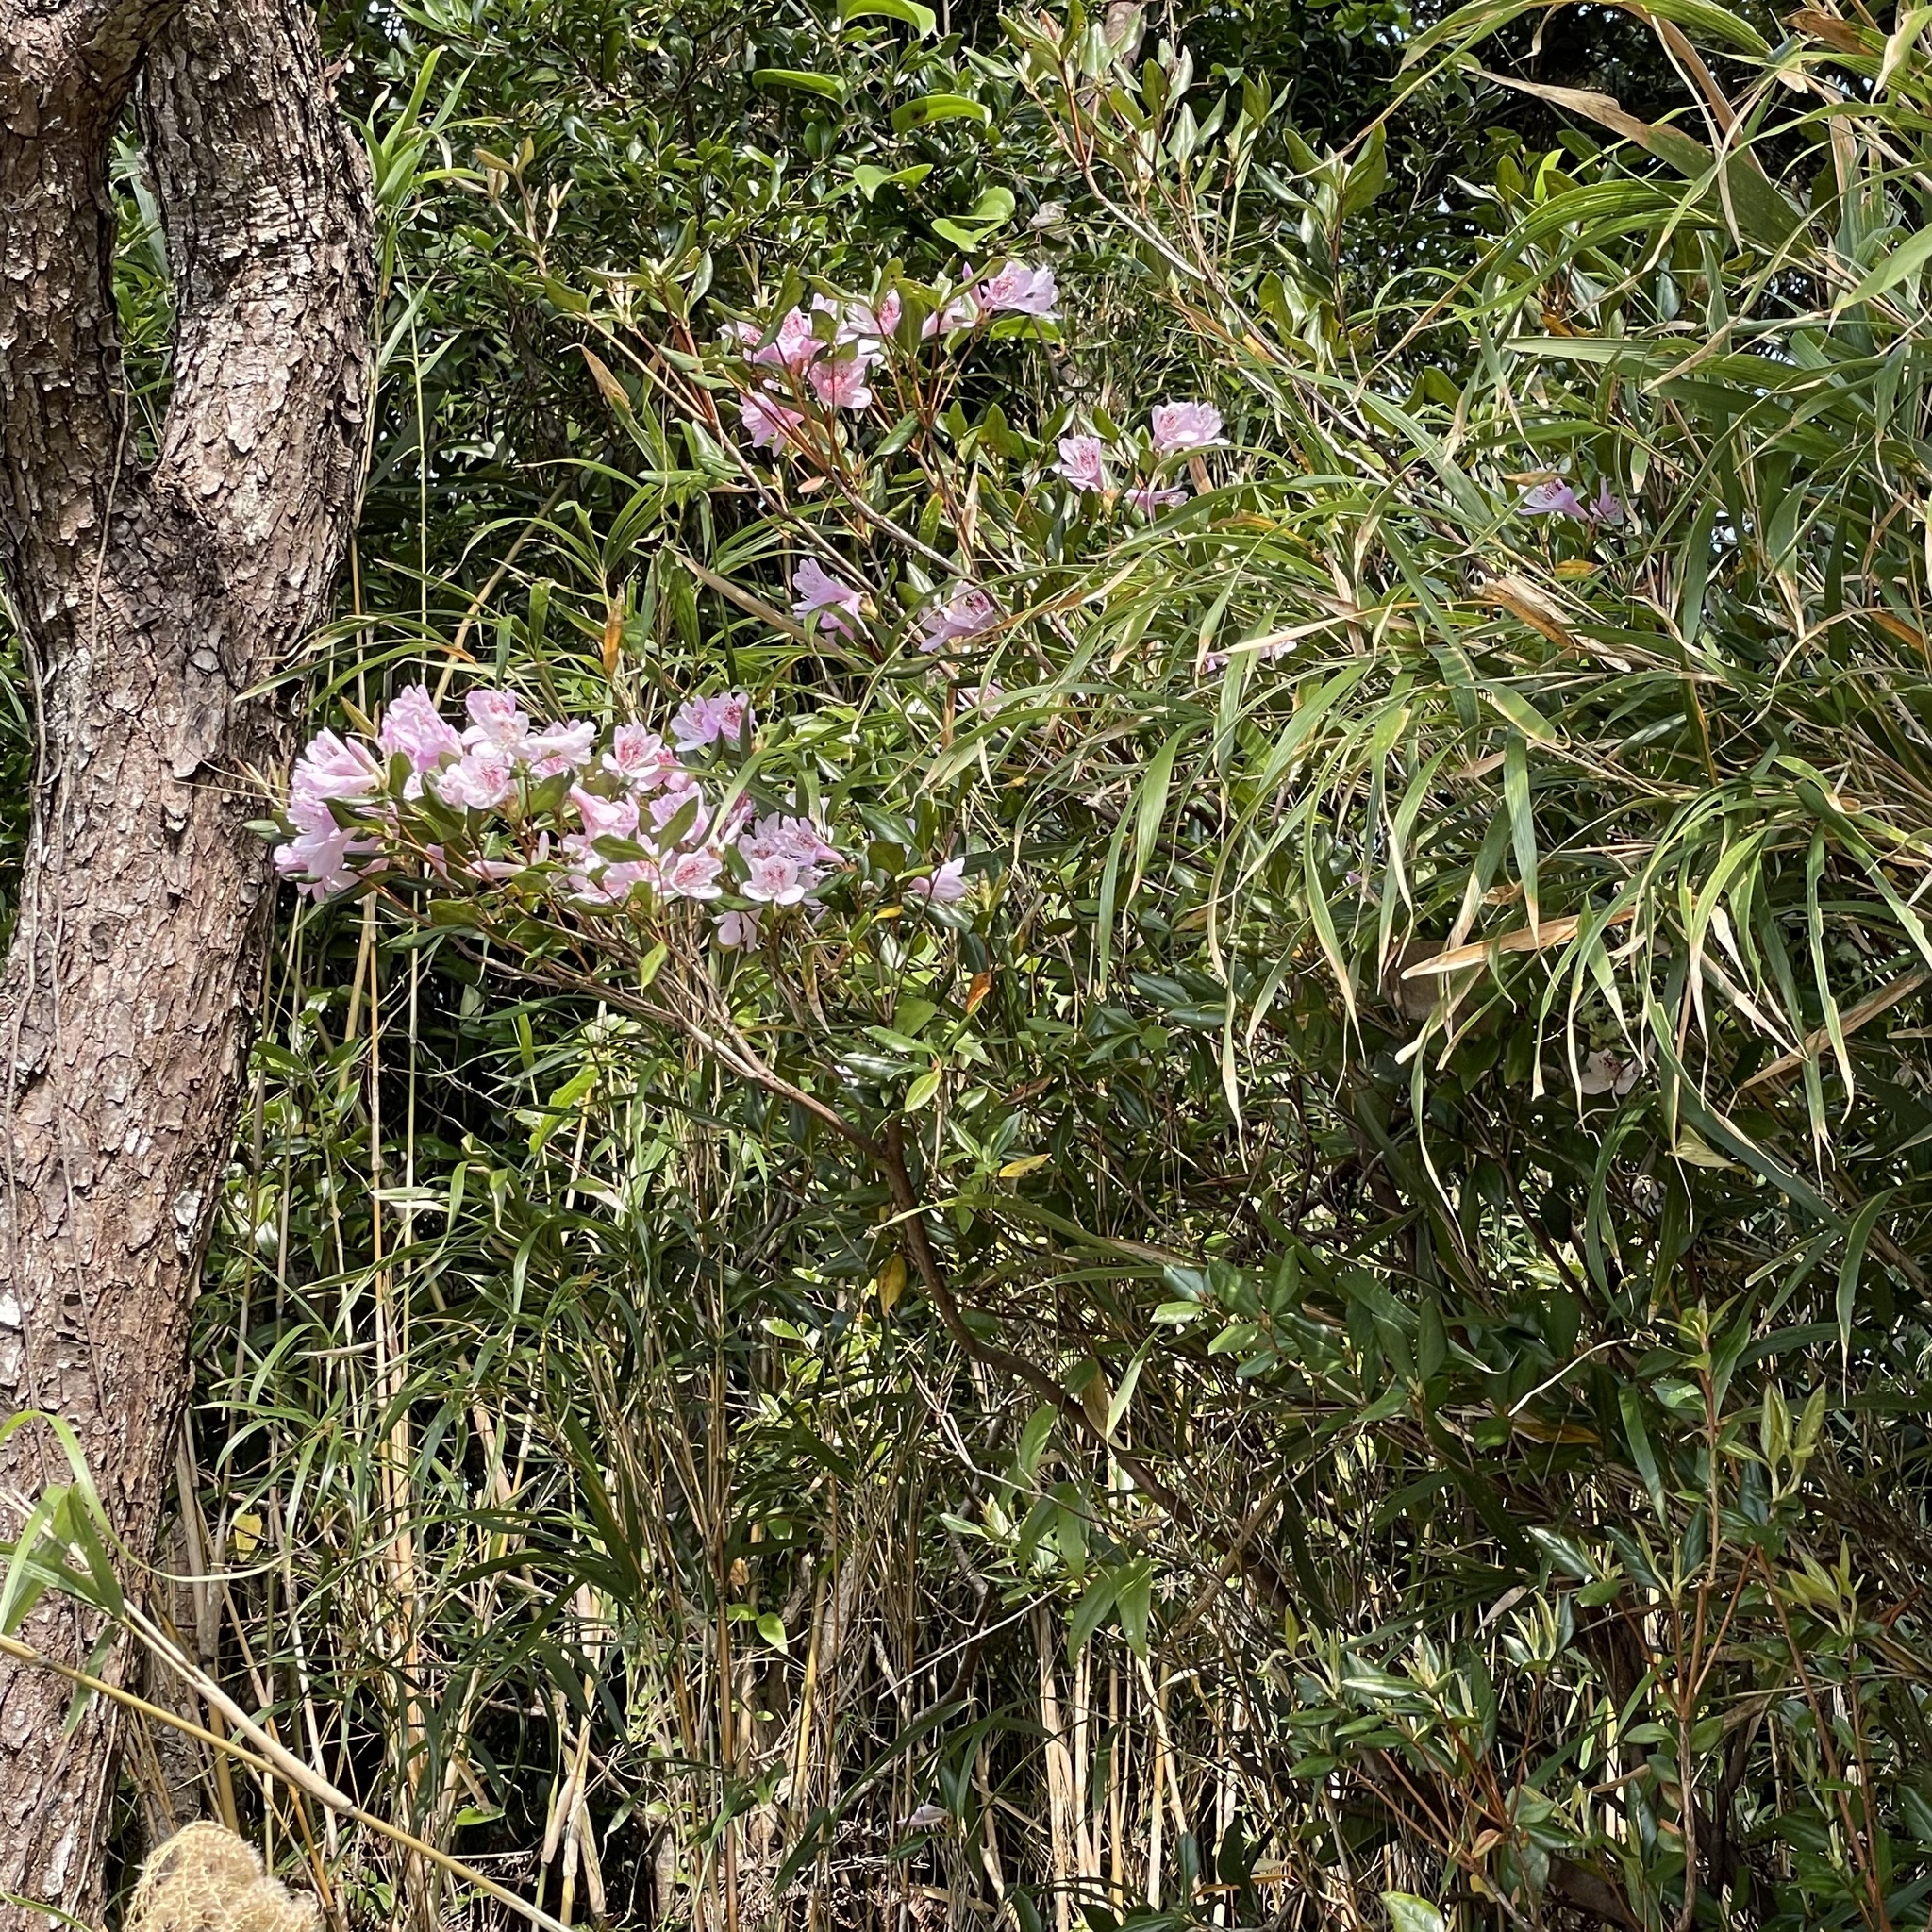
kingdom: Plantae
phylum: Tracheophyta
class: Magnoliopsida
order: Ericales
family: Ericaceae
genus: Rhododendron
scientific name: Rhododendron tashiroi
